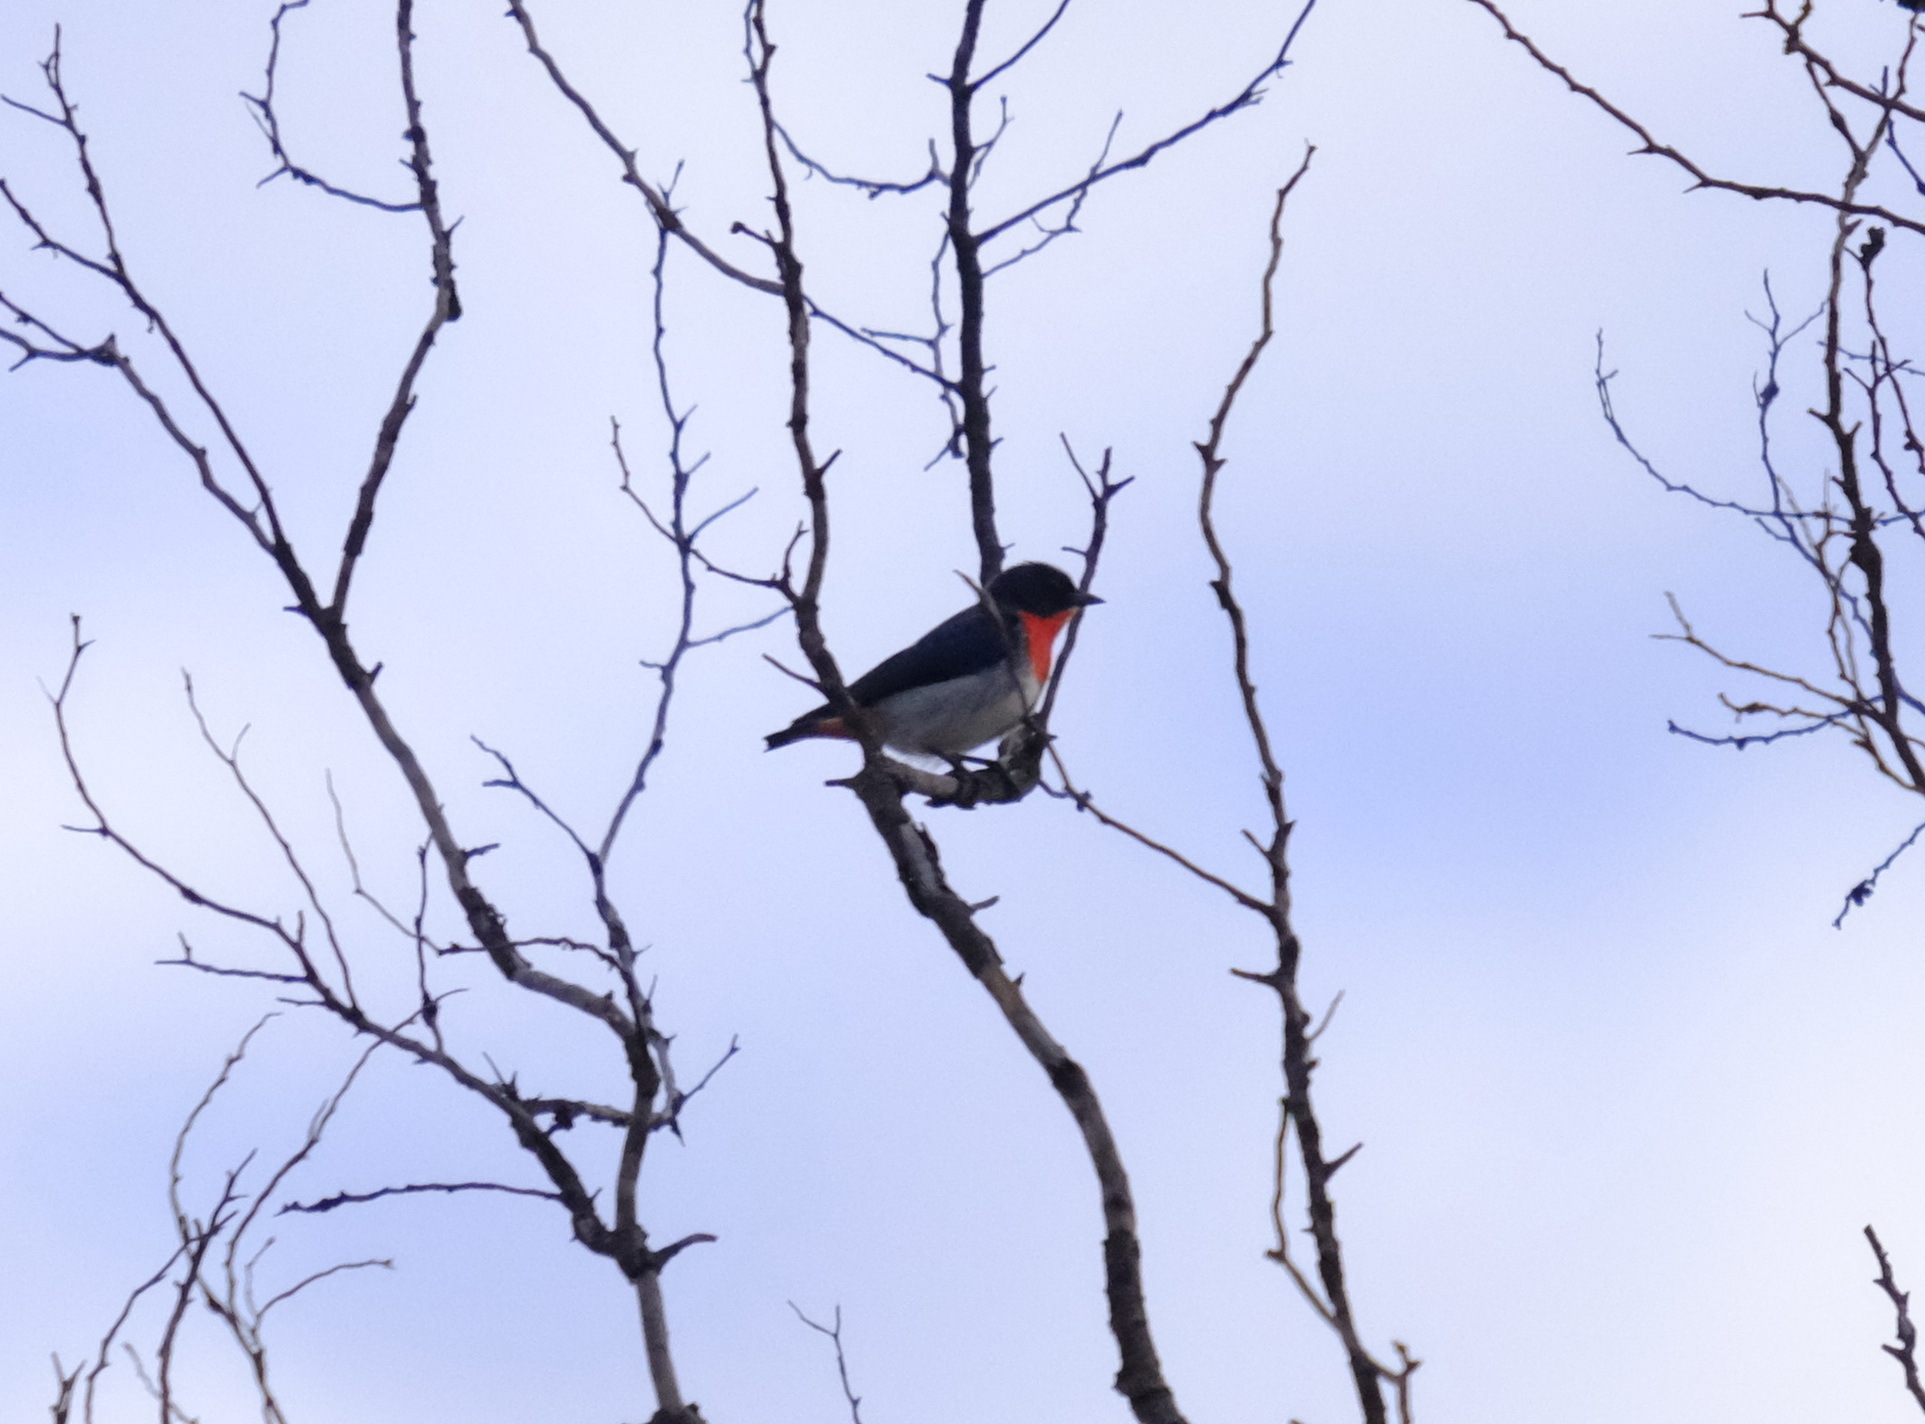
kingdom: Animalia
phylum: Chordata
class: Aves
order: Passeriformes
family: Dicaeidae
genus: Dicaeum
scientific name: Dicaeum hirundinaceum
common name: Mistletoebird
